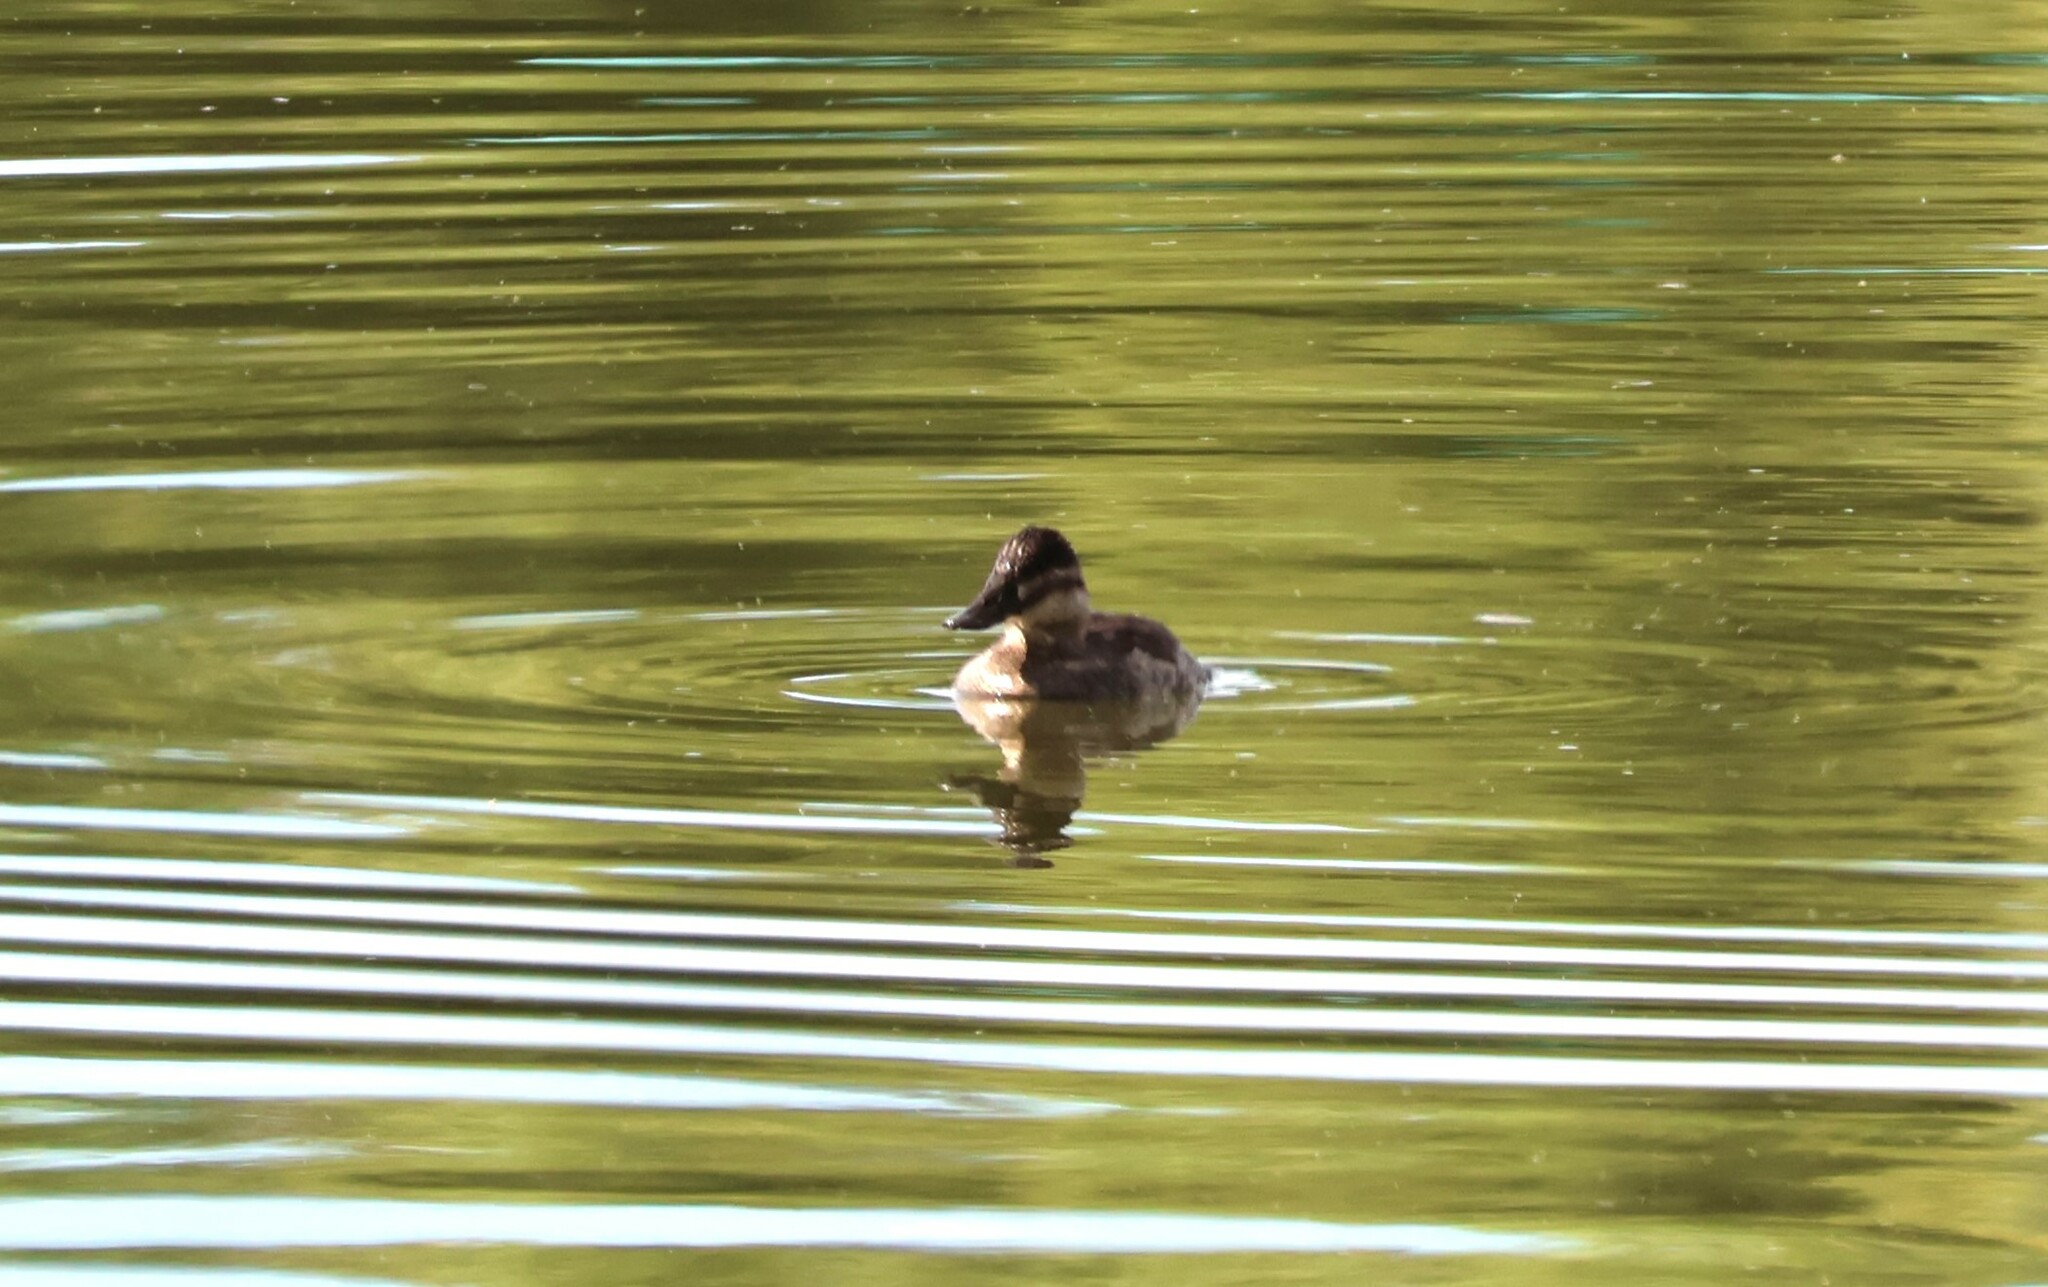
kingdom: Animalia
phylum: Chordata
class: Aves
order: Anseriformes
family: Anatidae
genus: Oxyura
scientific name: Oxyura jamaicensis
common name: Ruddy duck
